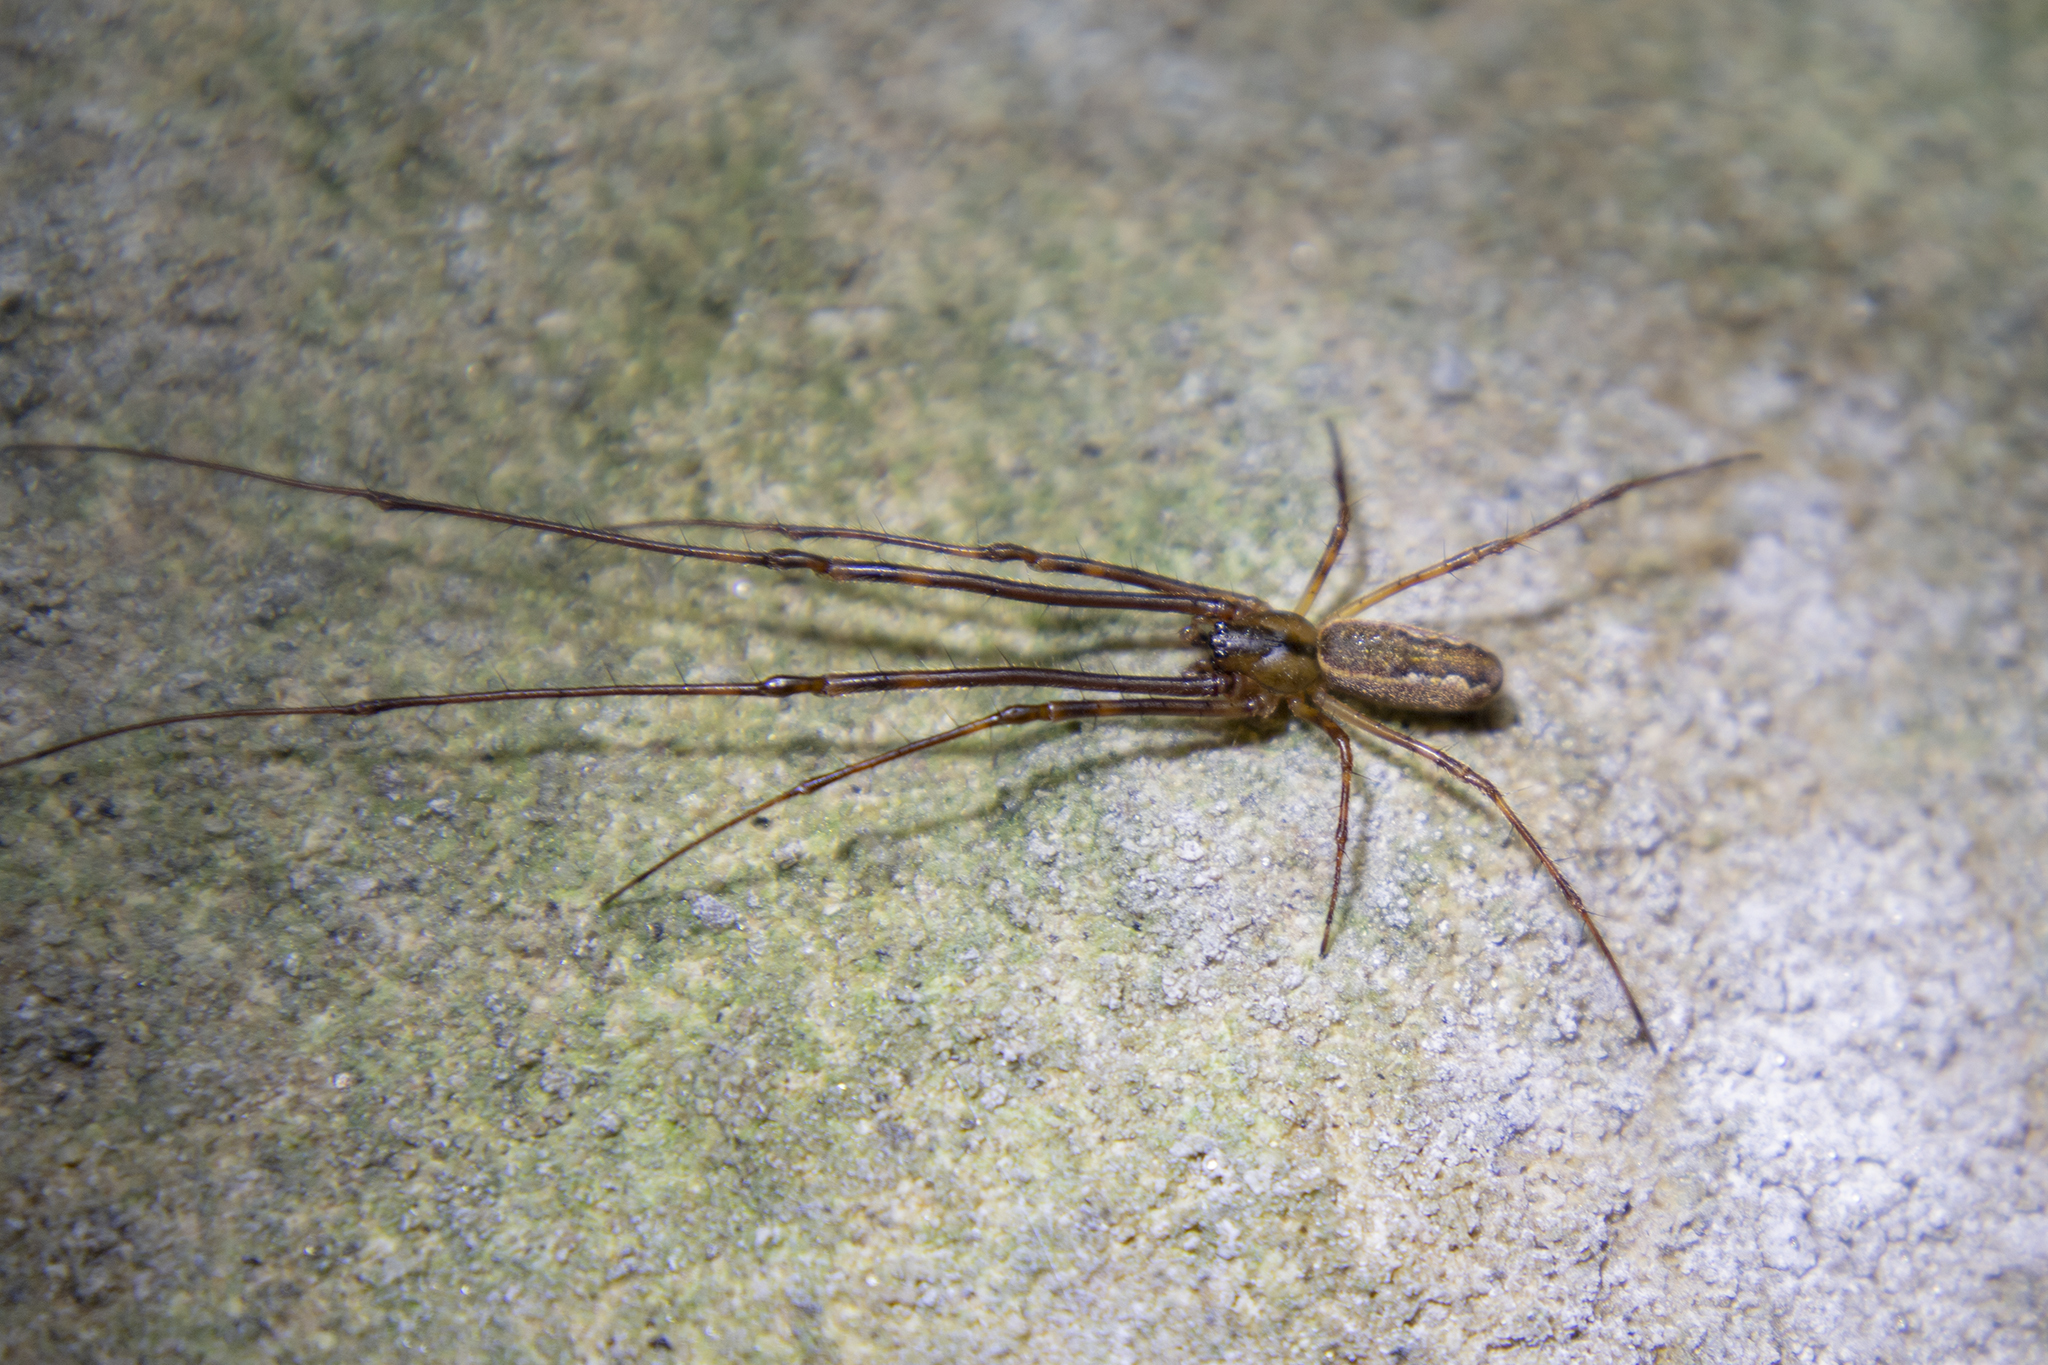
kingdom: Animalia
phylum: Arthropoda
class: Arachnida
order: Araneae
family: Tetragnathidae
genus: Nanometa
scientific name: Nanometa lagenifera
